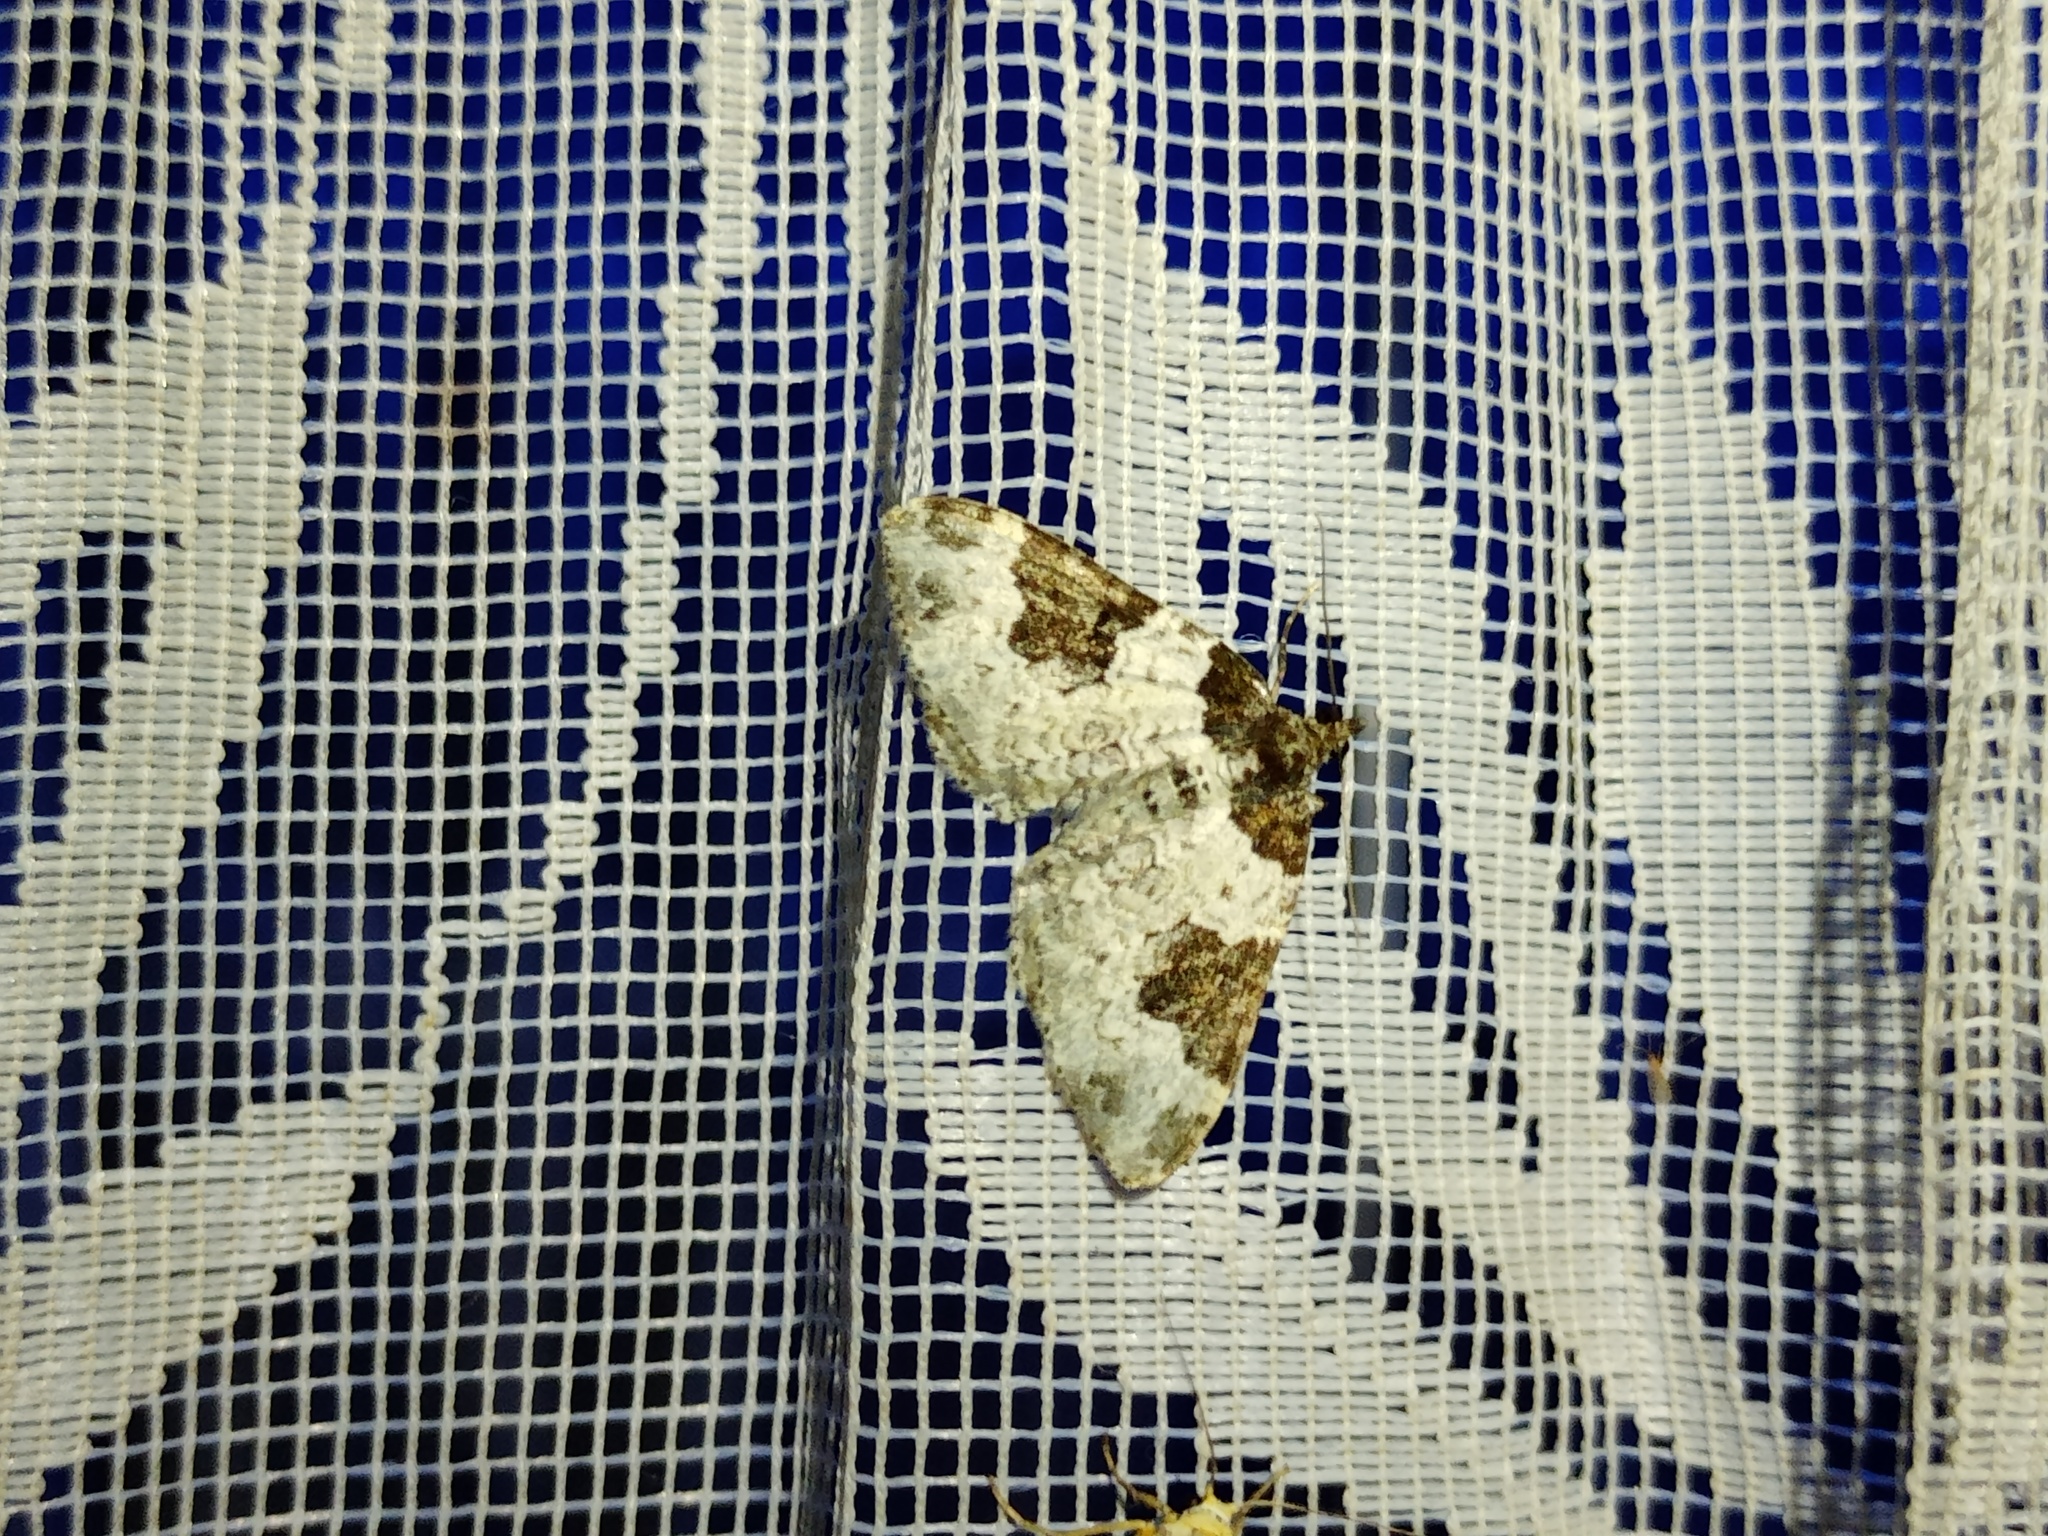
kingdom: Animalia
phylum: Arthropoda
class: Insecta
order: Lepidoptera
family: Geometridae
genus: Xanthorhoe
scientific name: Xanthorhoe fluctuata
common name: Garden carpet
